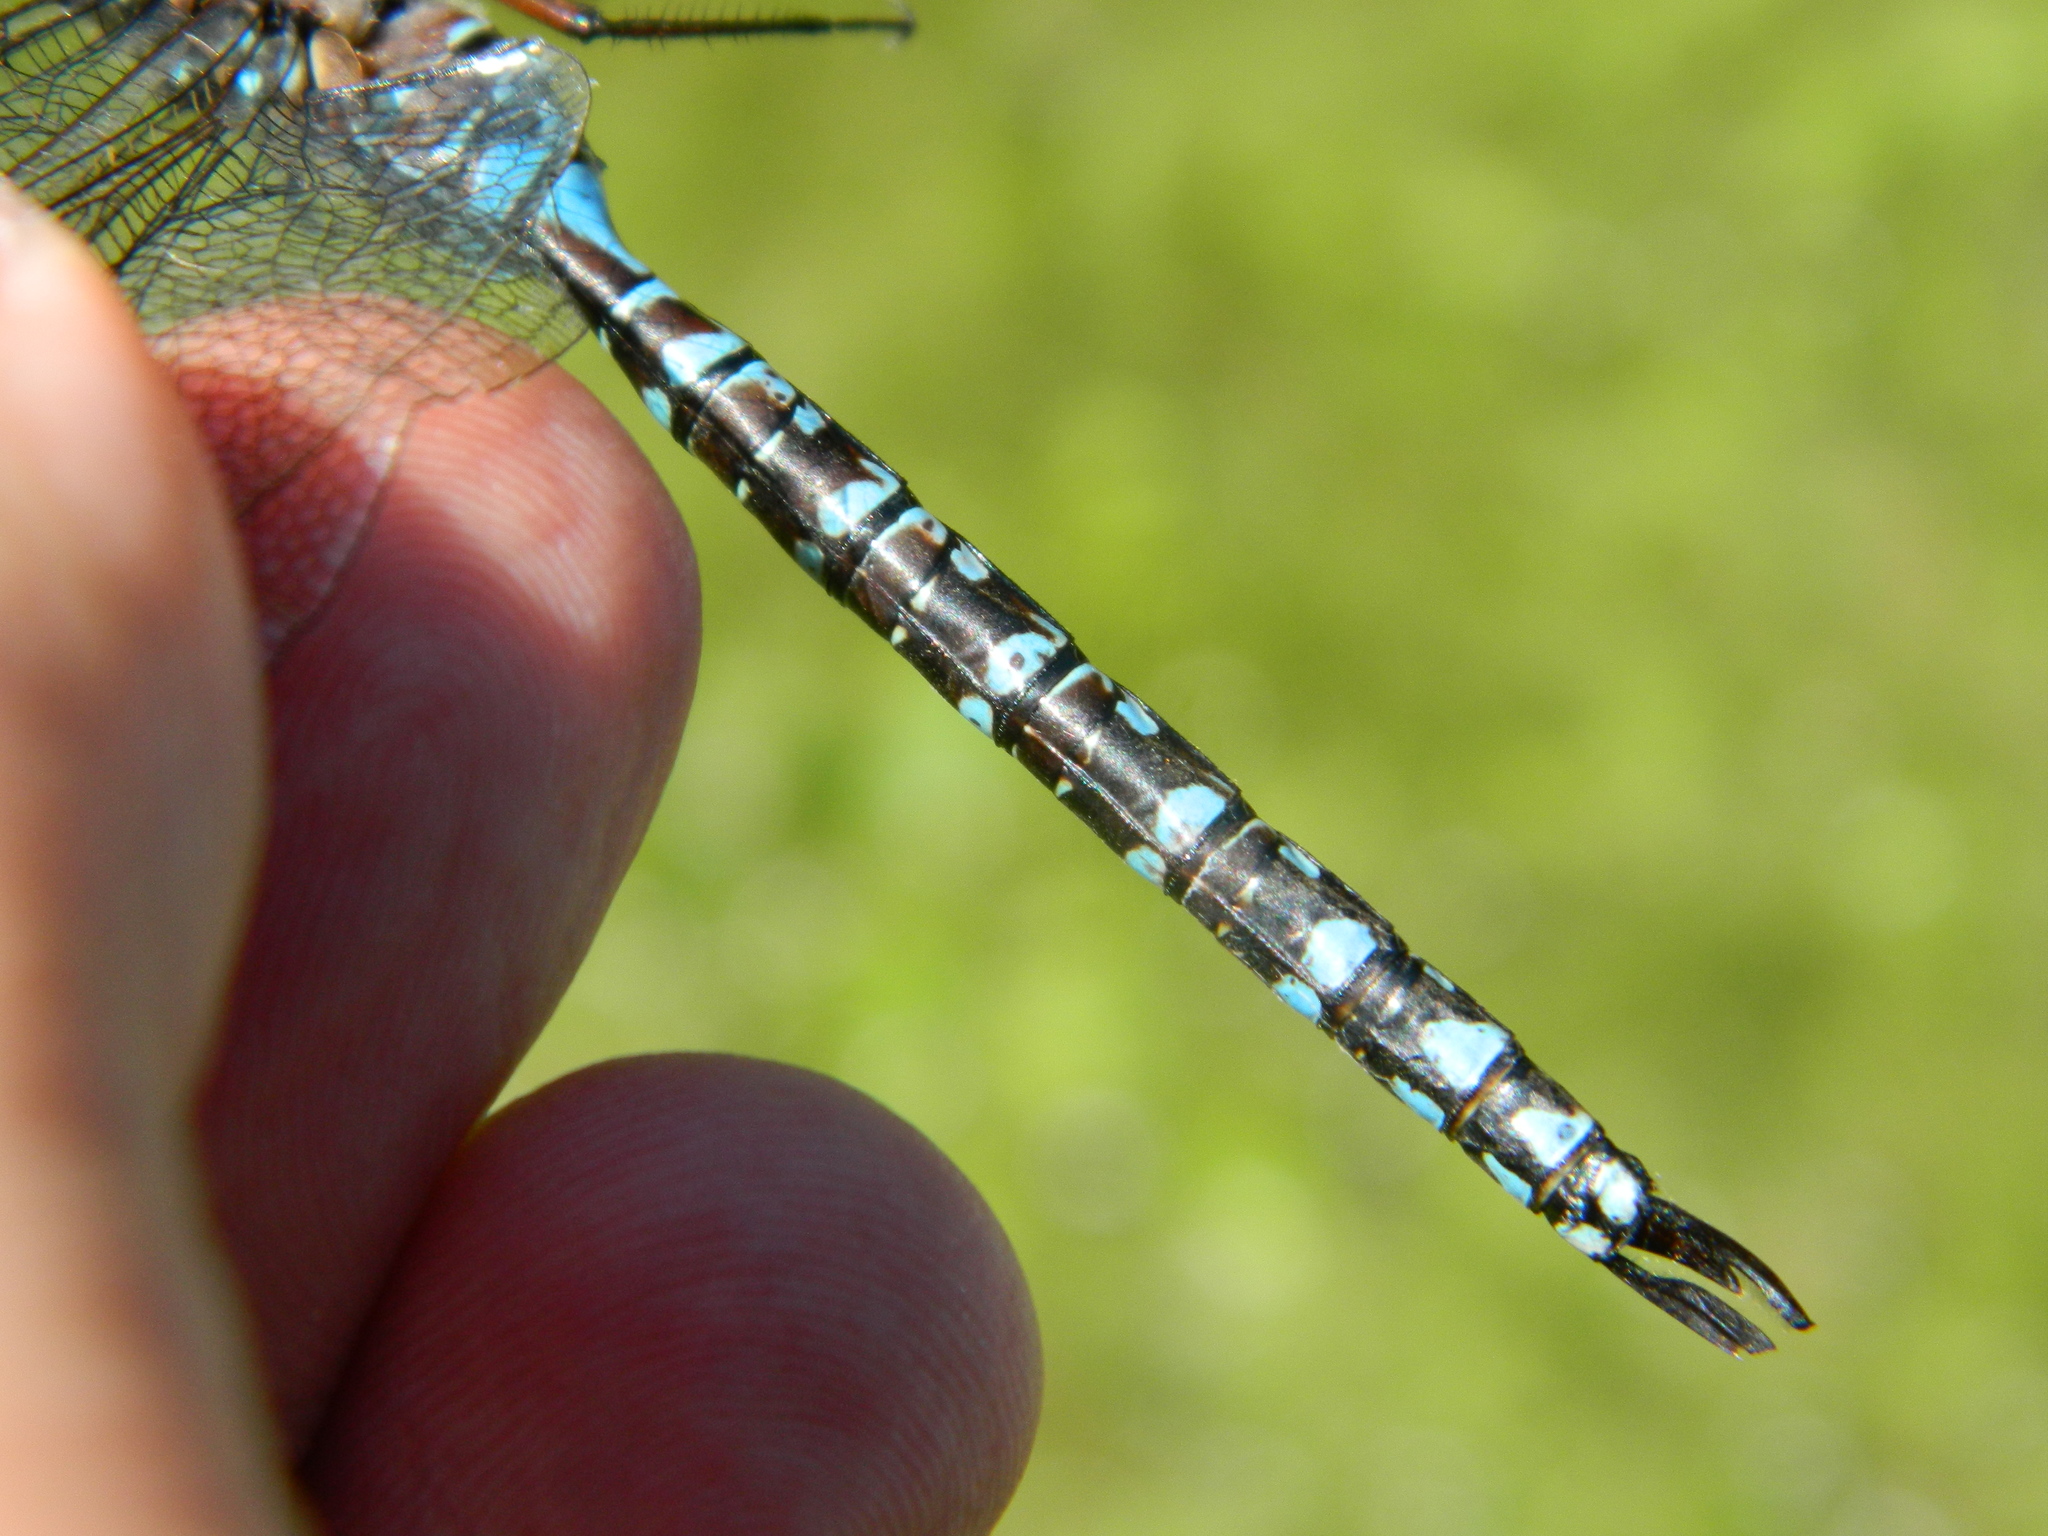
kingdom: Animalia
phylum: Arthropoda
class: Insecta
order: Odonata
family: Aeshnidae
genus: Aeshna
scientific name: Aeshna canadensis
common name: Canada darner
